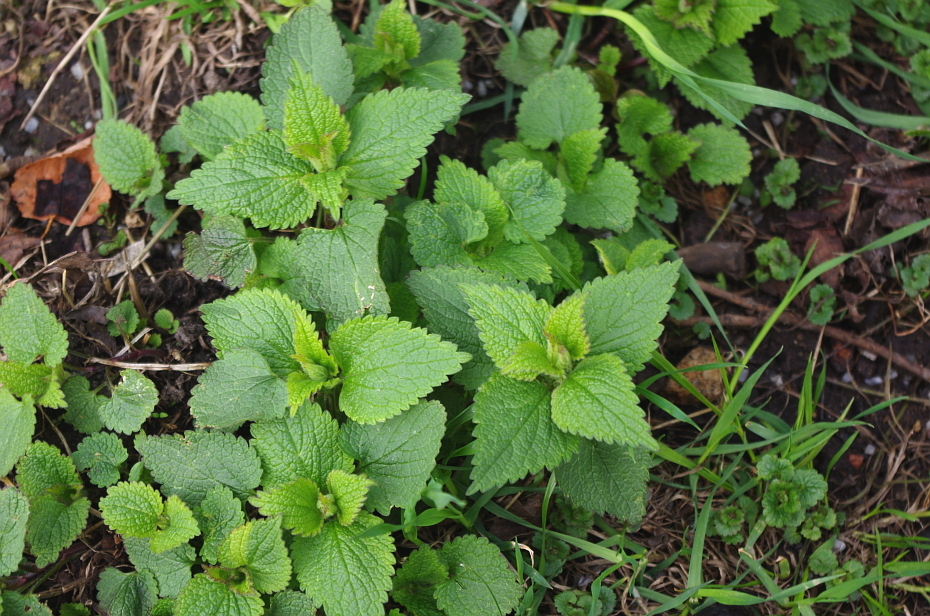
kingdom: Plantae
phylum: Tracheophyta
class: Magnoliopsida
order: Lamiales
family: Lamiaceae
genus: Lamium
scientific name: Lamium album
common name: White dead-nettle
